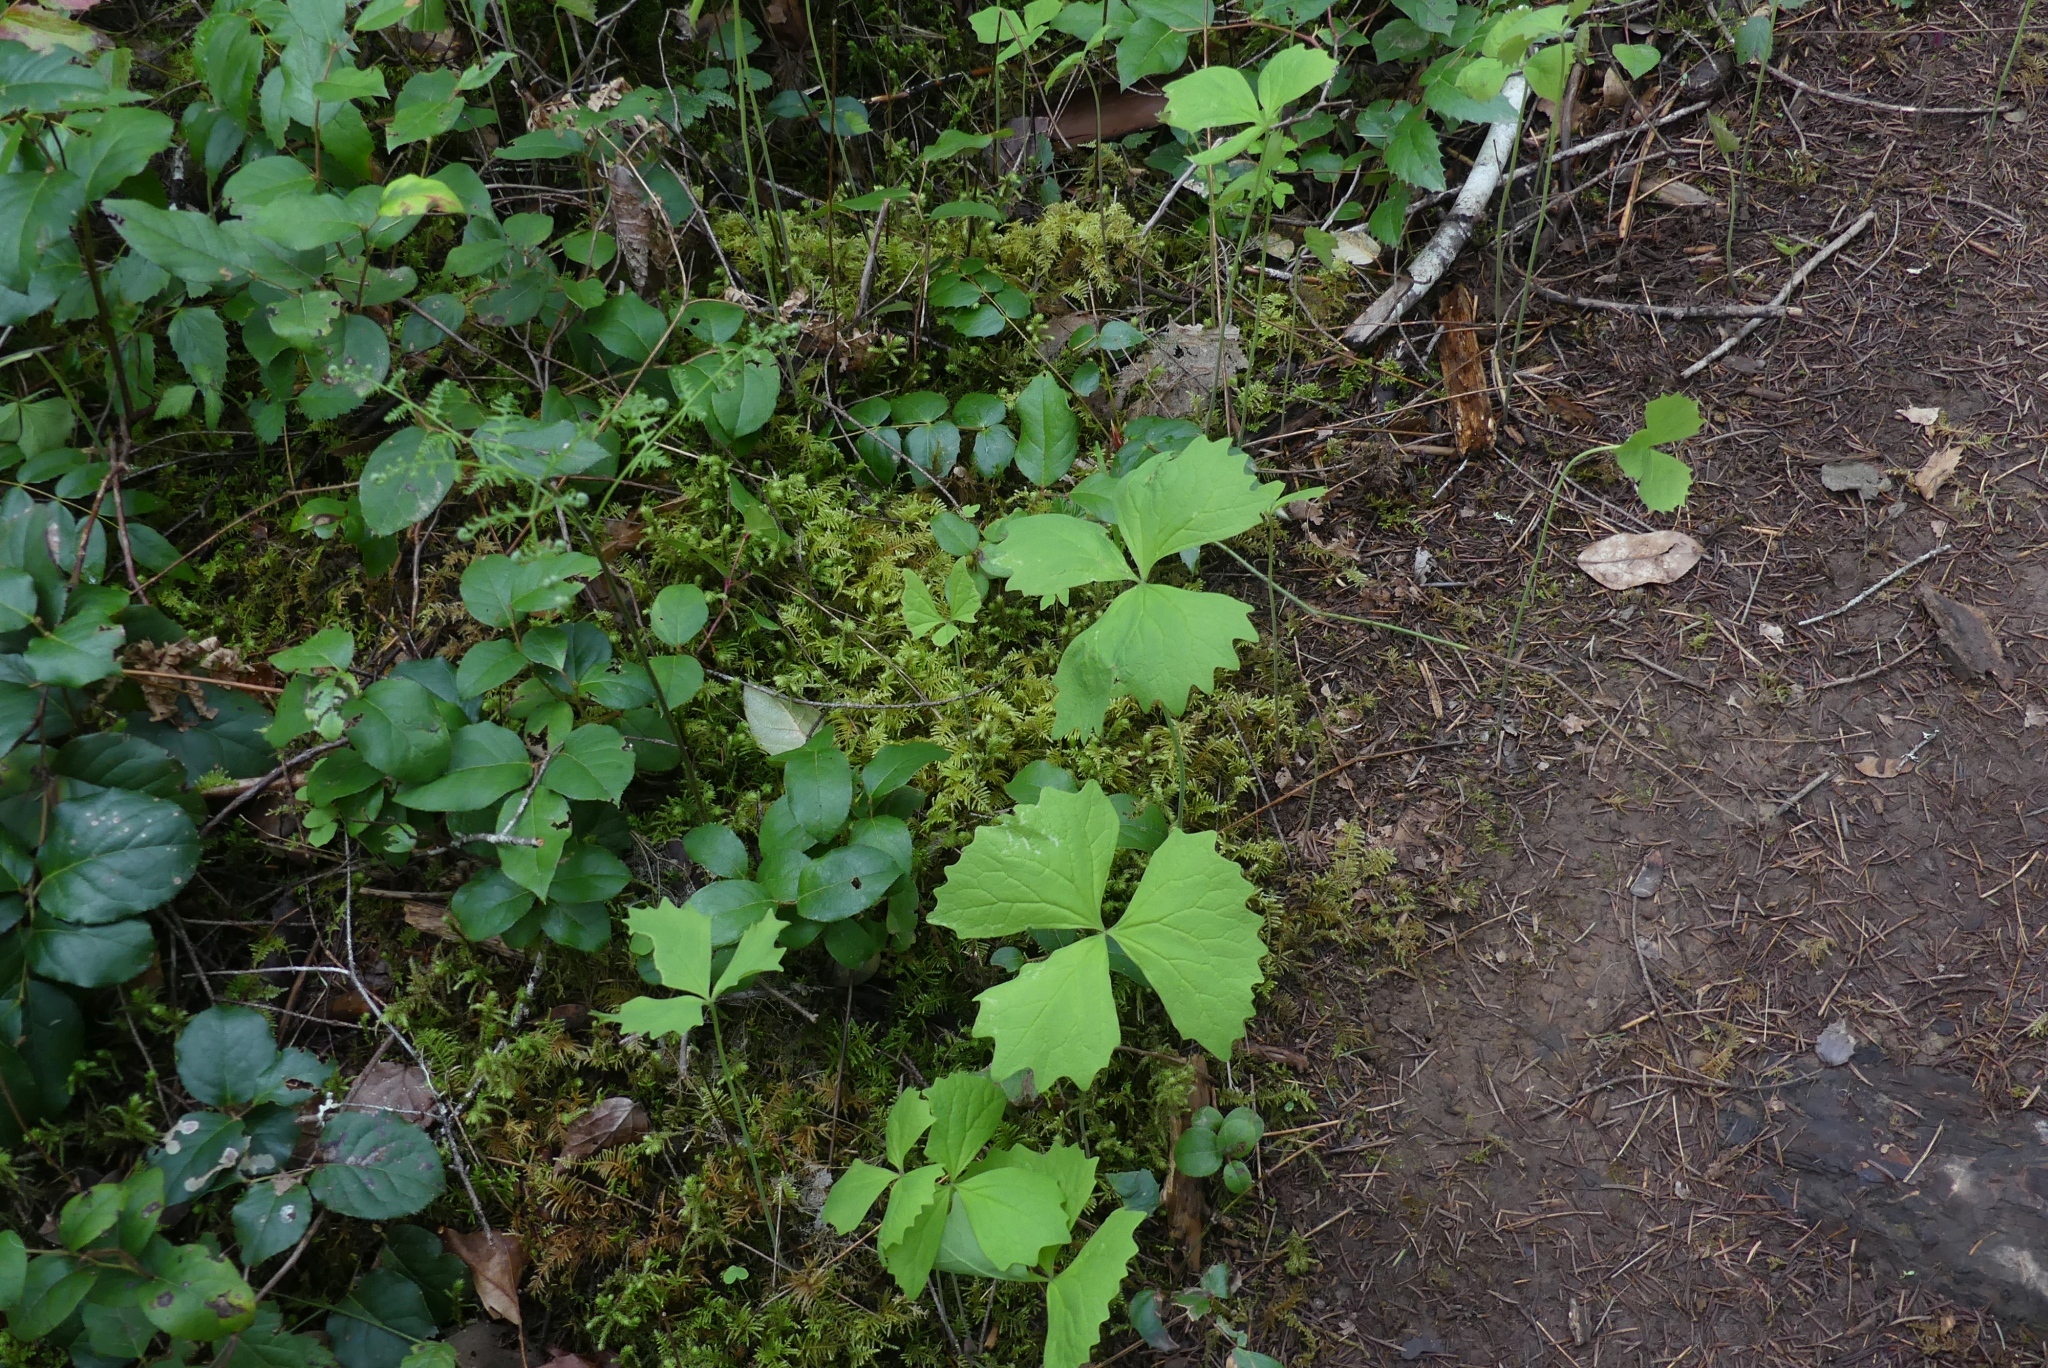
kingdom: Plantae
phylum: Tracheophyta
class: Magnoliopsida
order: Ranunculales
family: Berberidaceae
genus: Achlys
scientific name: Achlys triphylla
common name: Vanilla-leaf
